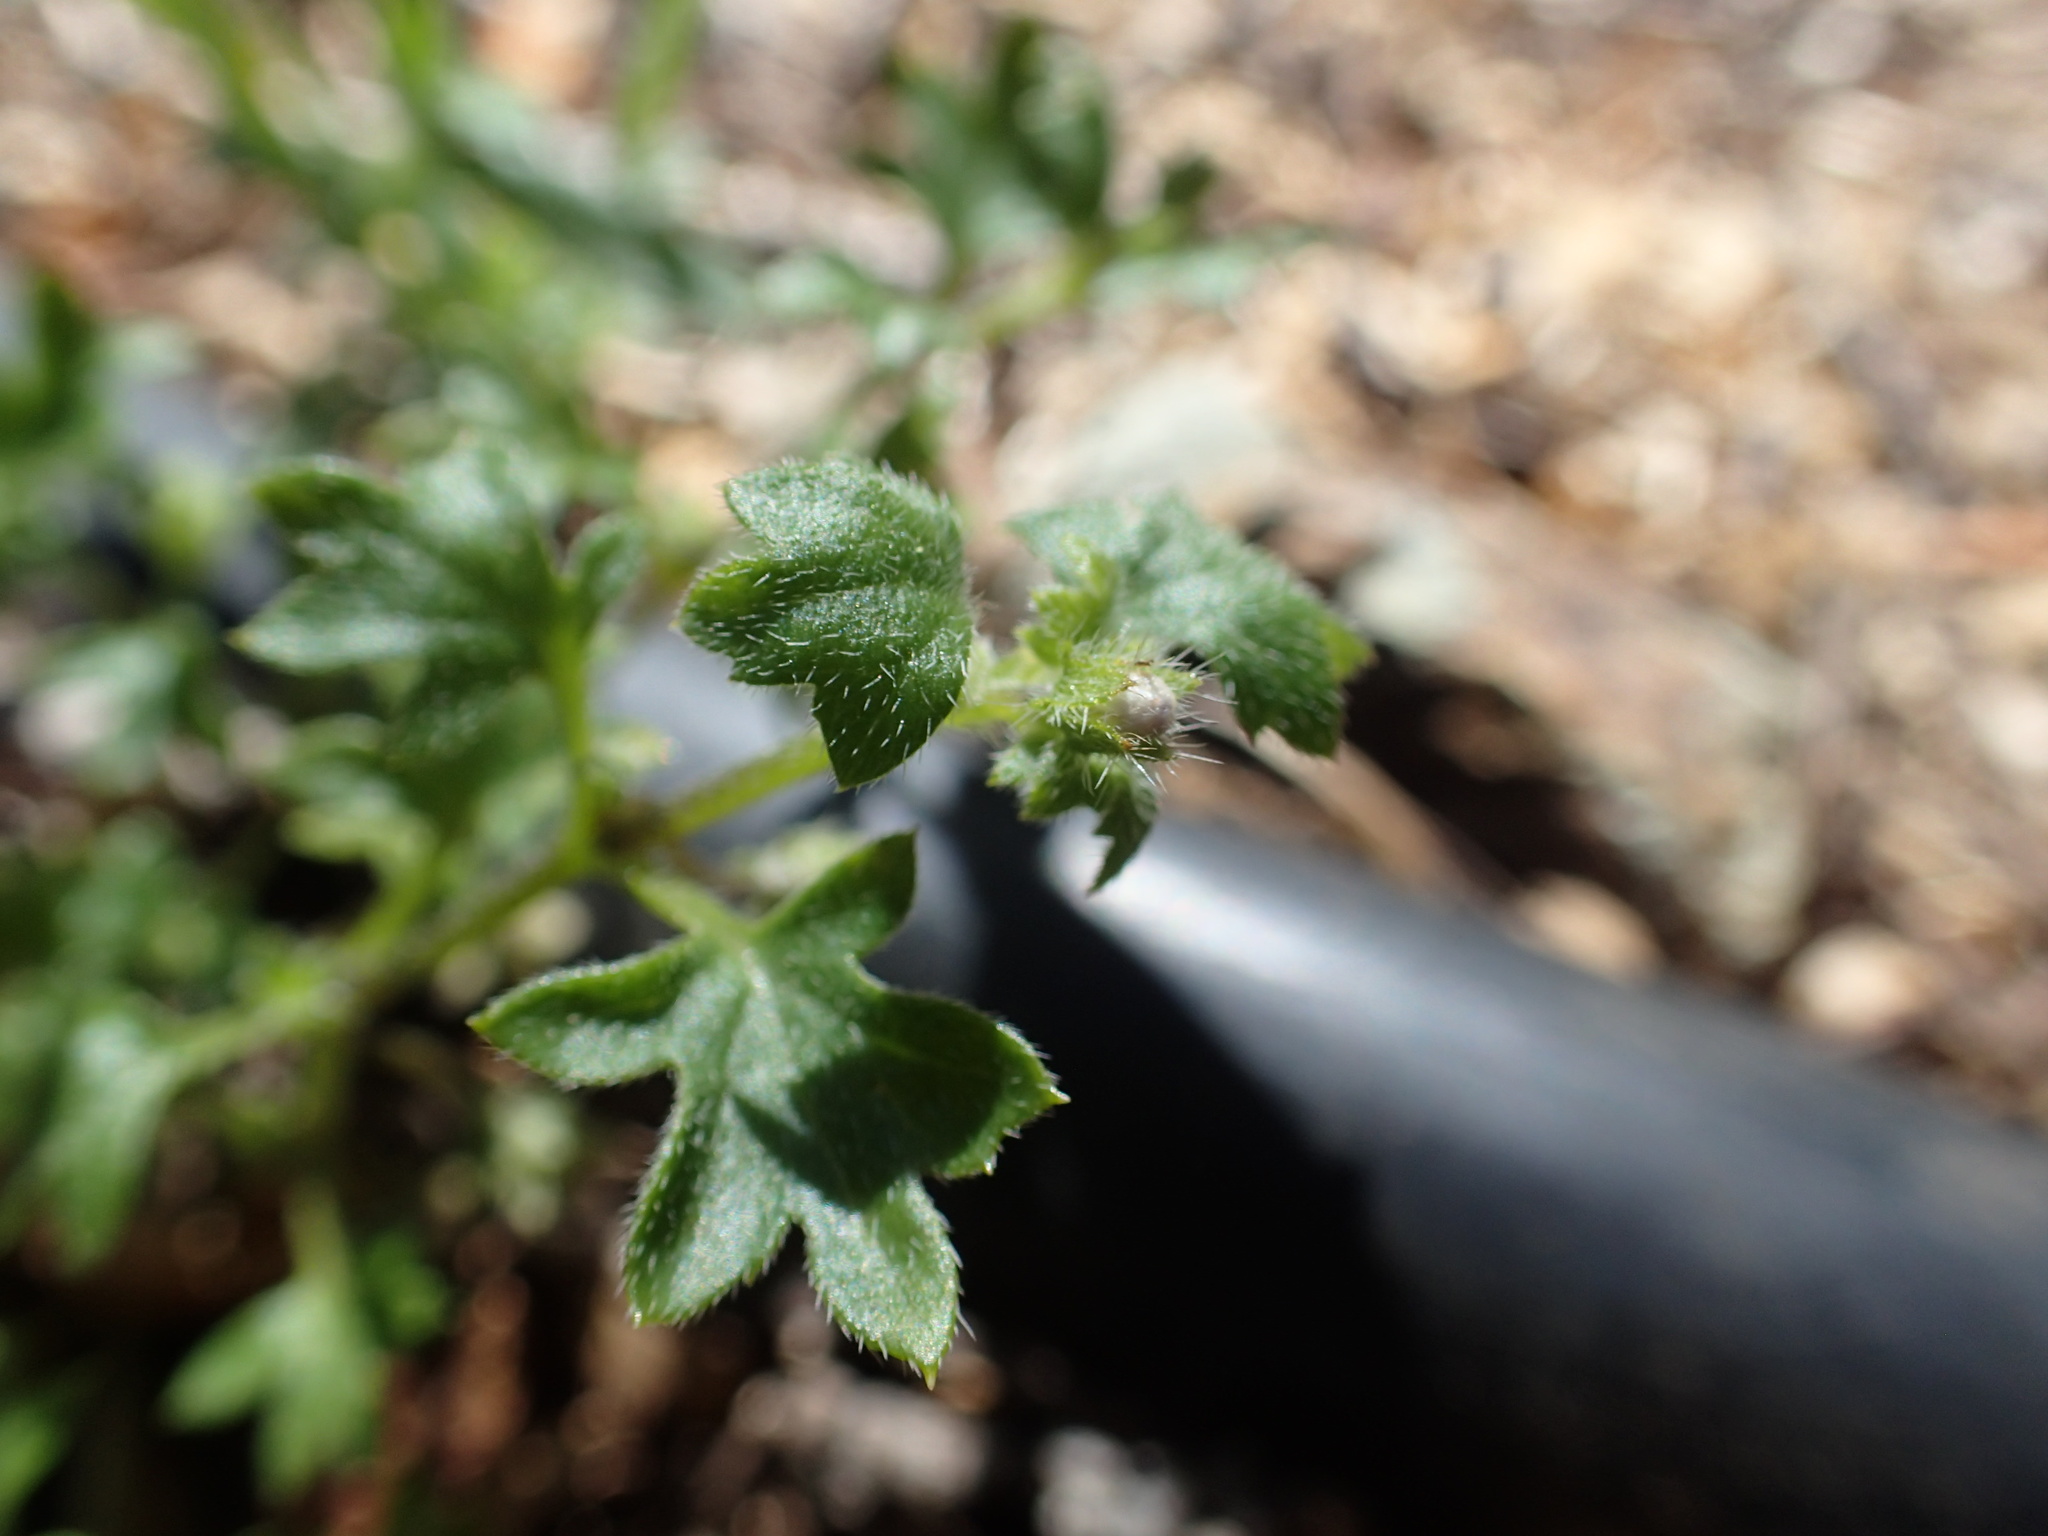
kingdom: Plantae
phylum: Tracheophyta
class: Magnoliopsida
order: Boraginales
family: Hydrophyllaceae
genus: Nemophila
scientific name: Nemophila parviflora
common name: Small-flowered baby-blue-eyes
